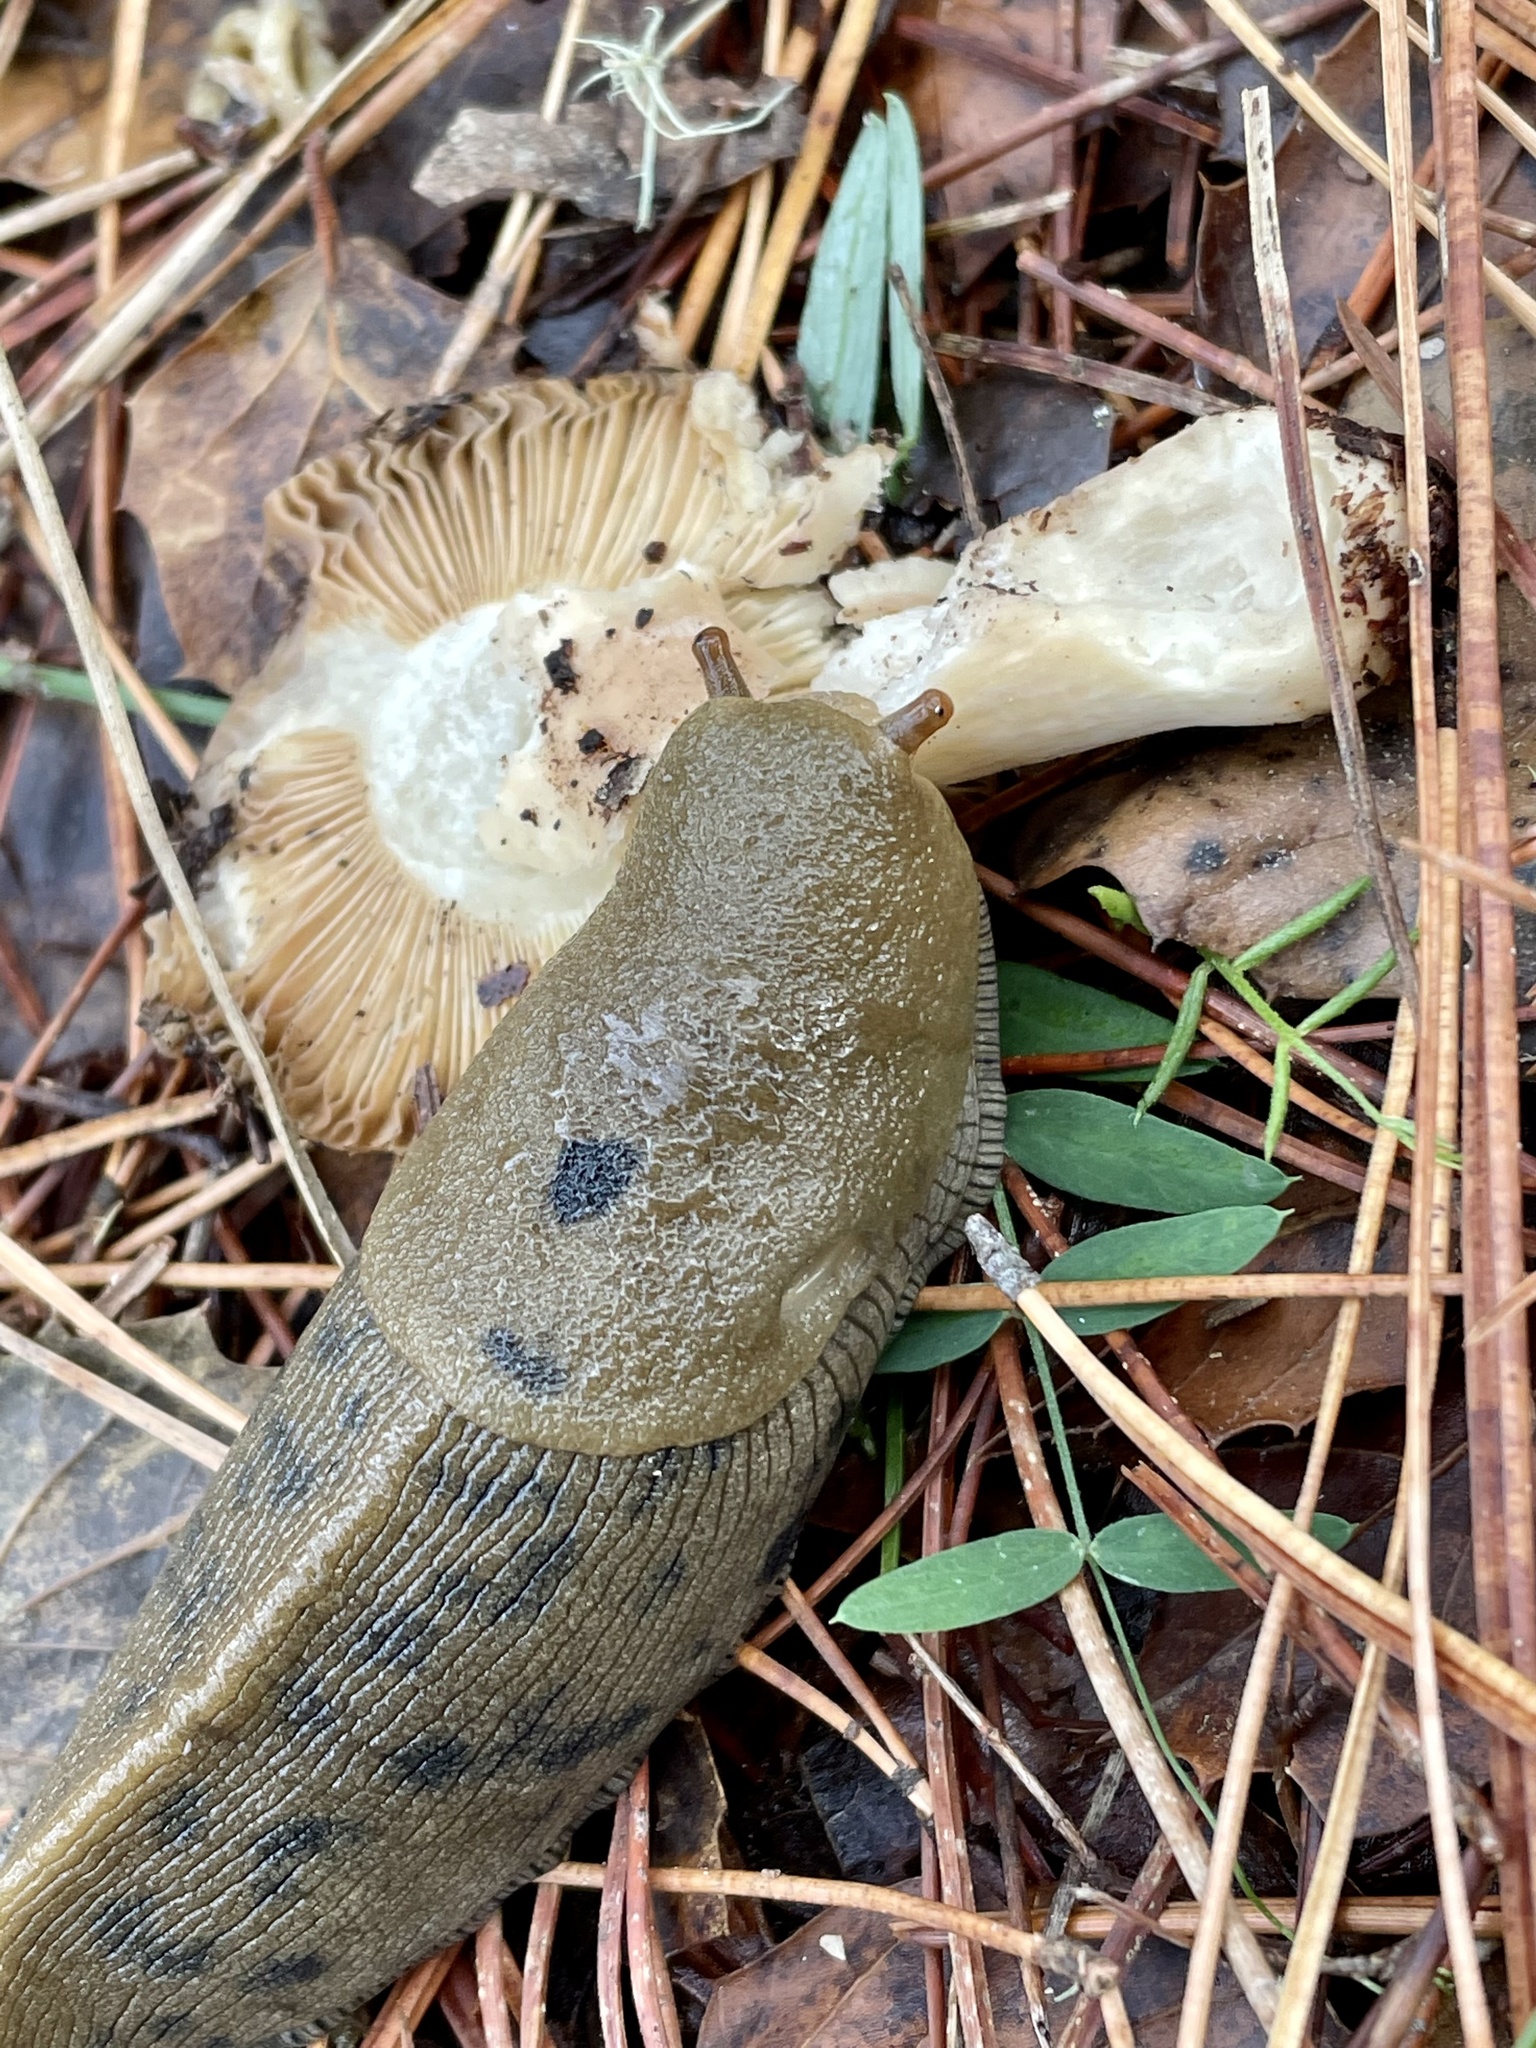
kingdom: Animalia
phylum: Mollusca
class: Gastropoda
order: Stylommatophora
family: Ariolimacidae
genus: Ariolimax
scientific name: Ariolimax buttoni
